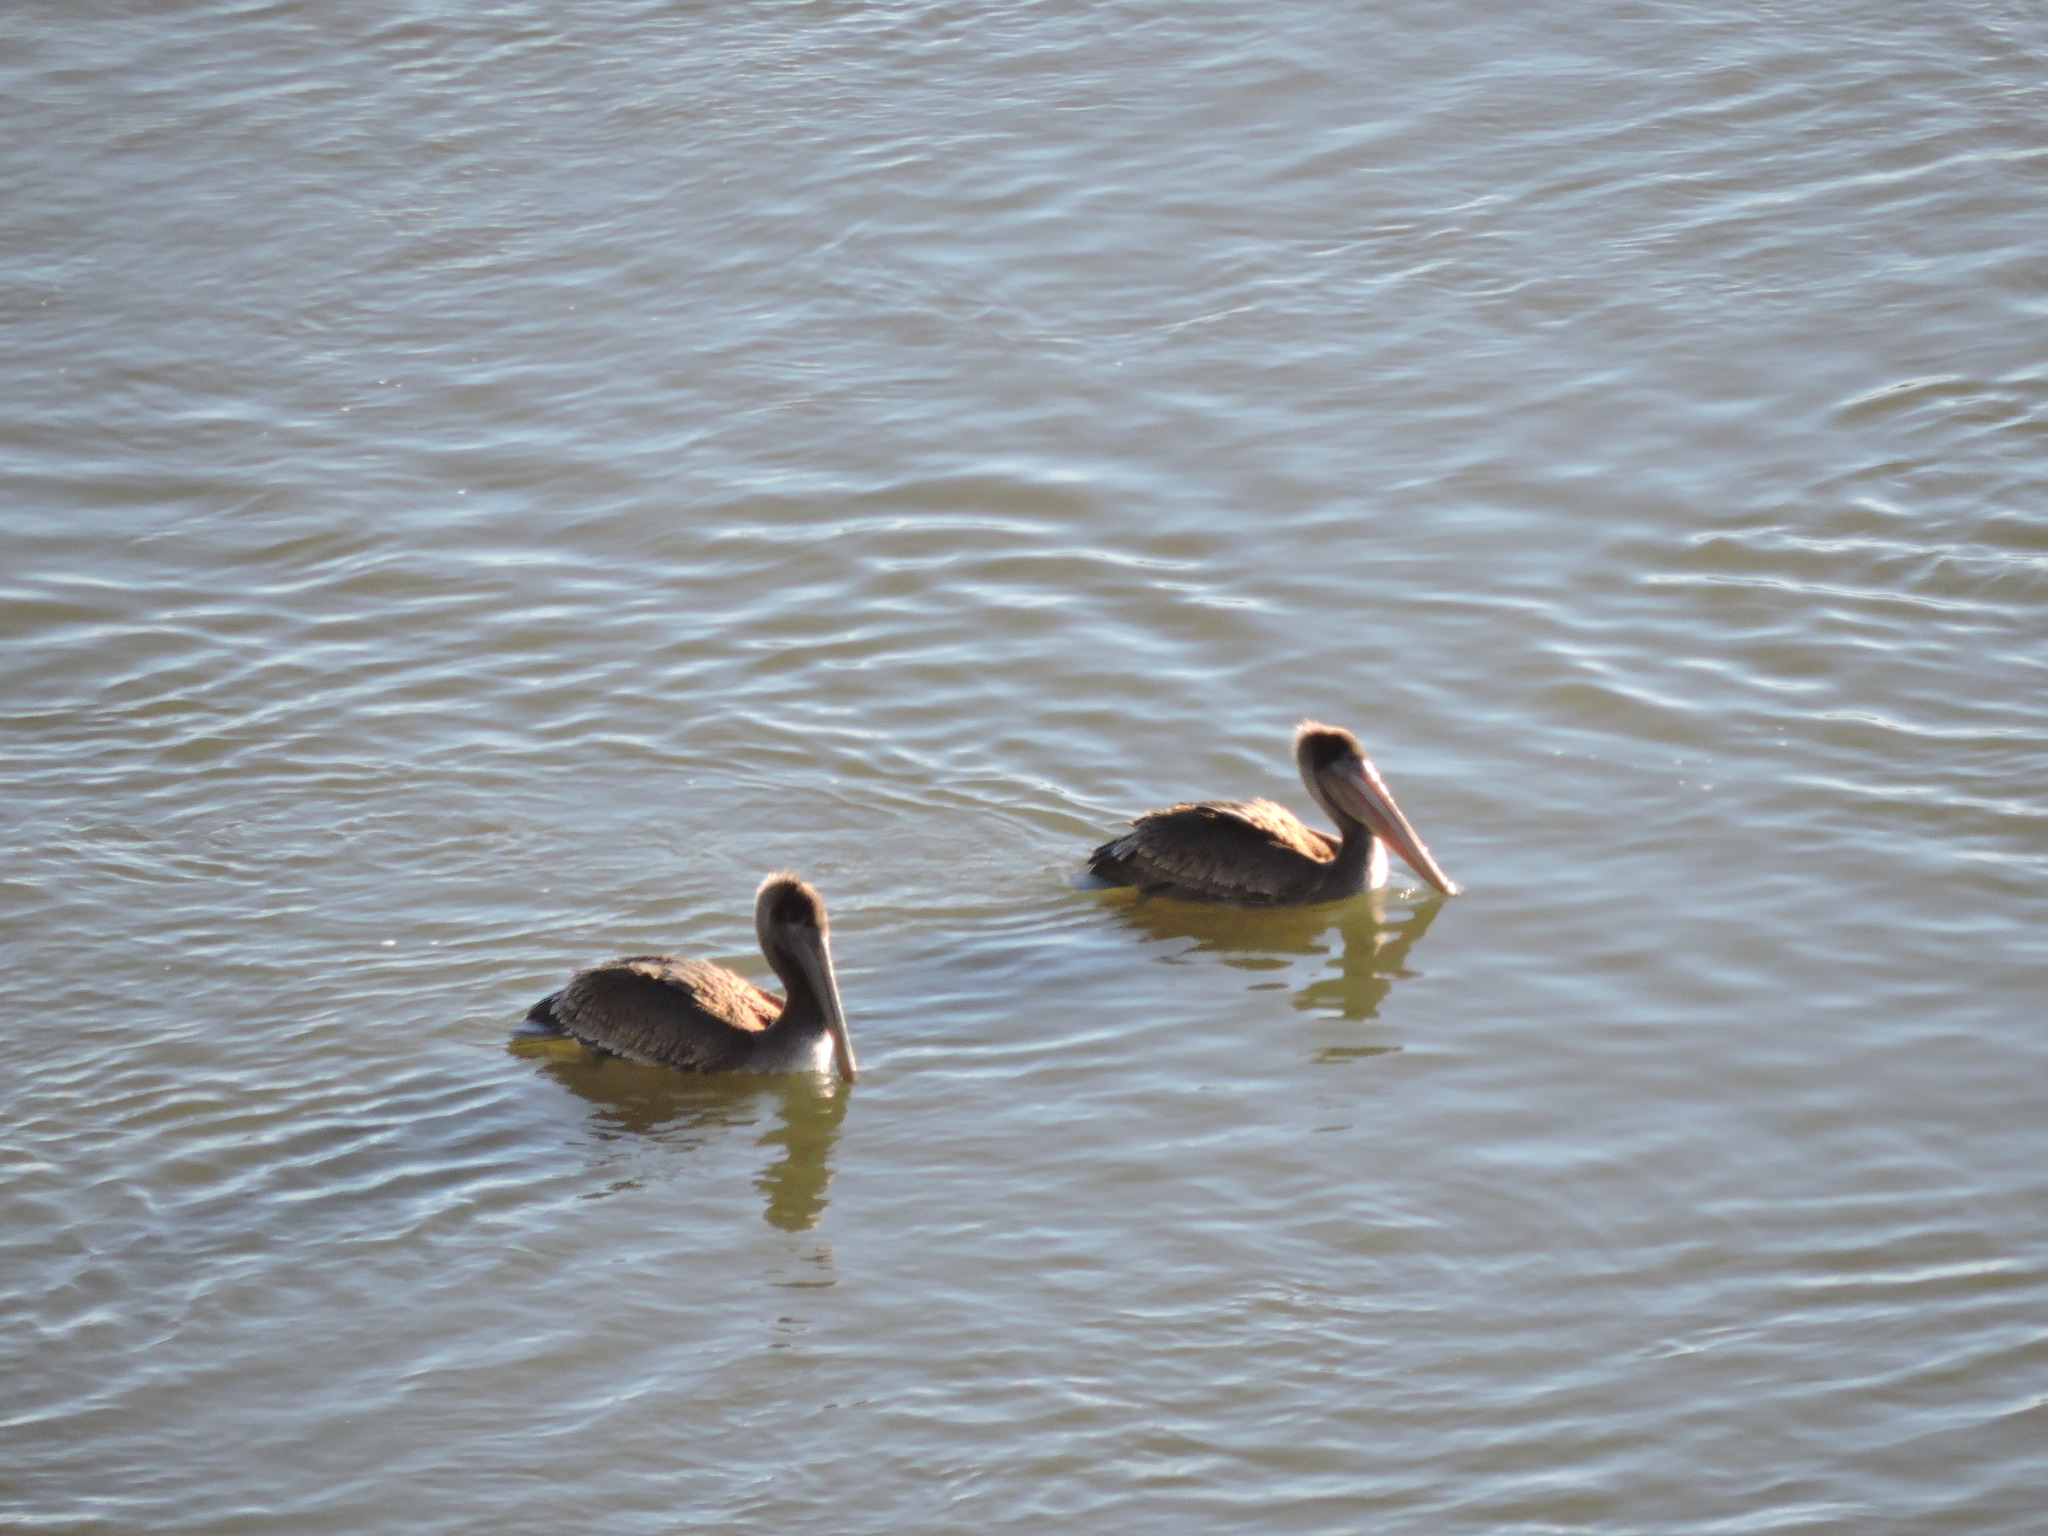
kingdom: Animalia
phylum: Chordata
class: Aves
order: Pelecaniformes
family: Pelecanidae
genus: Pelecanus
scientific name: Pelecanus occidentalis
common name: Brown pelican
